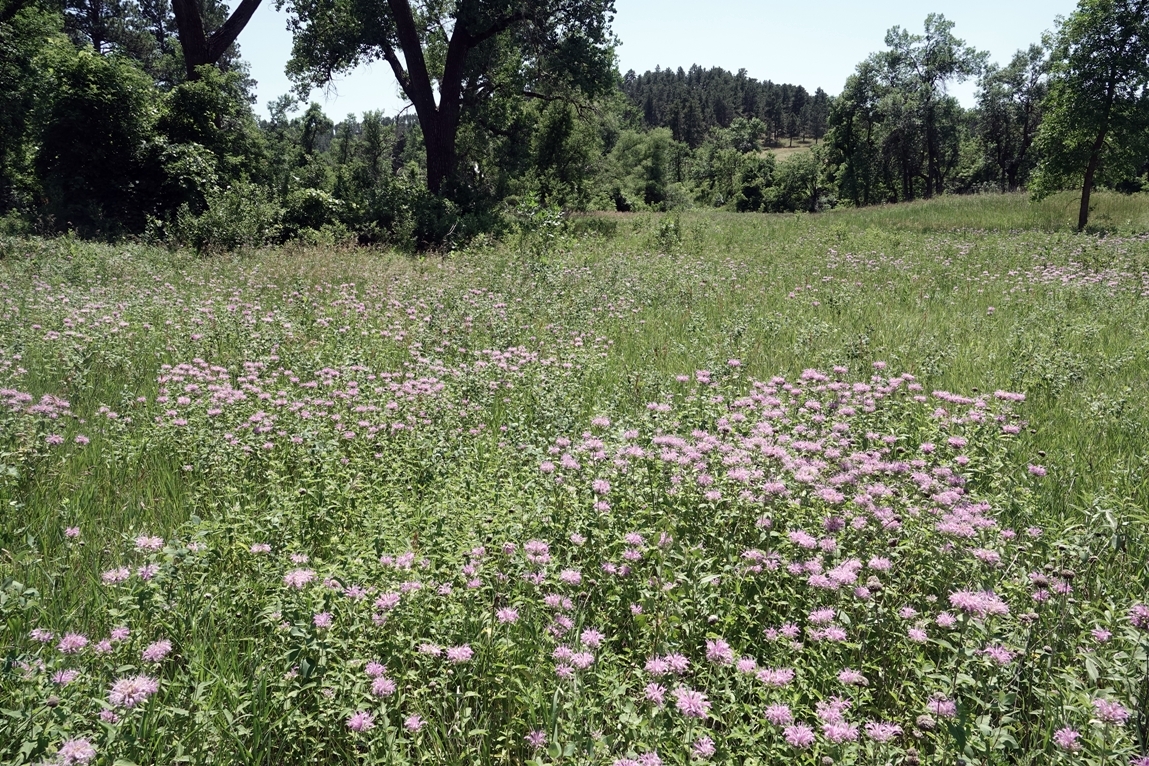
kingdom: Plantae
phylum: Tracheophyta
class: Magnoliopsida
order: Lamiales
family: Lamiaceae
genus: Monarda
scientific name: Monarda fistulosa
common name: Purple beebalm
